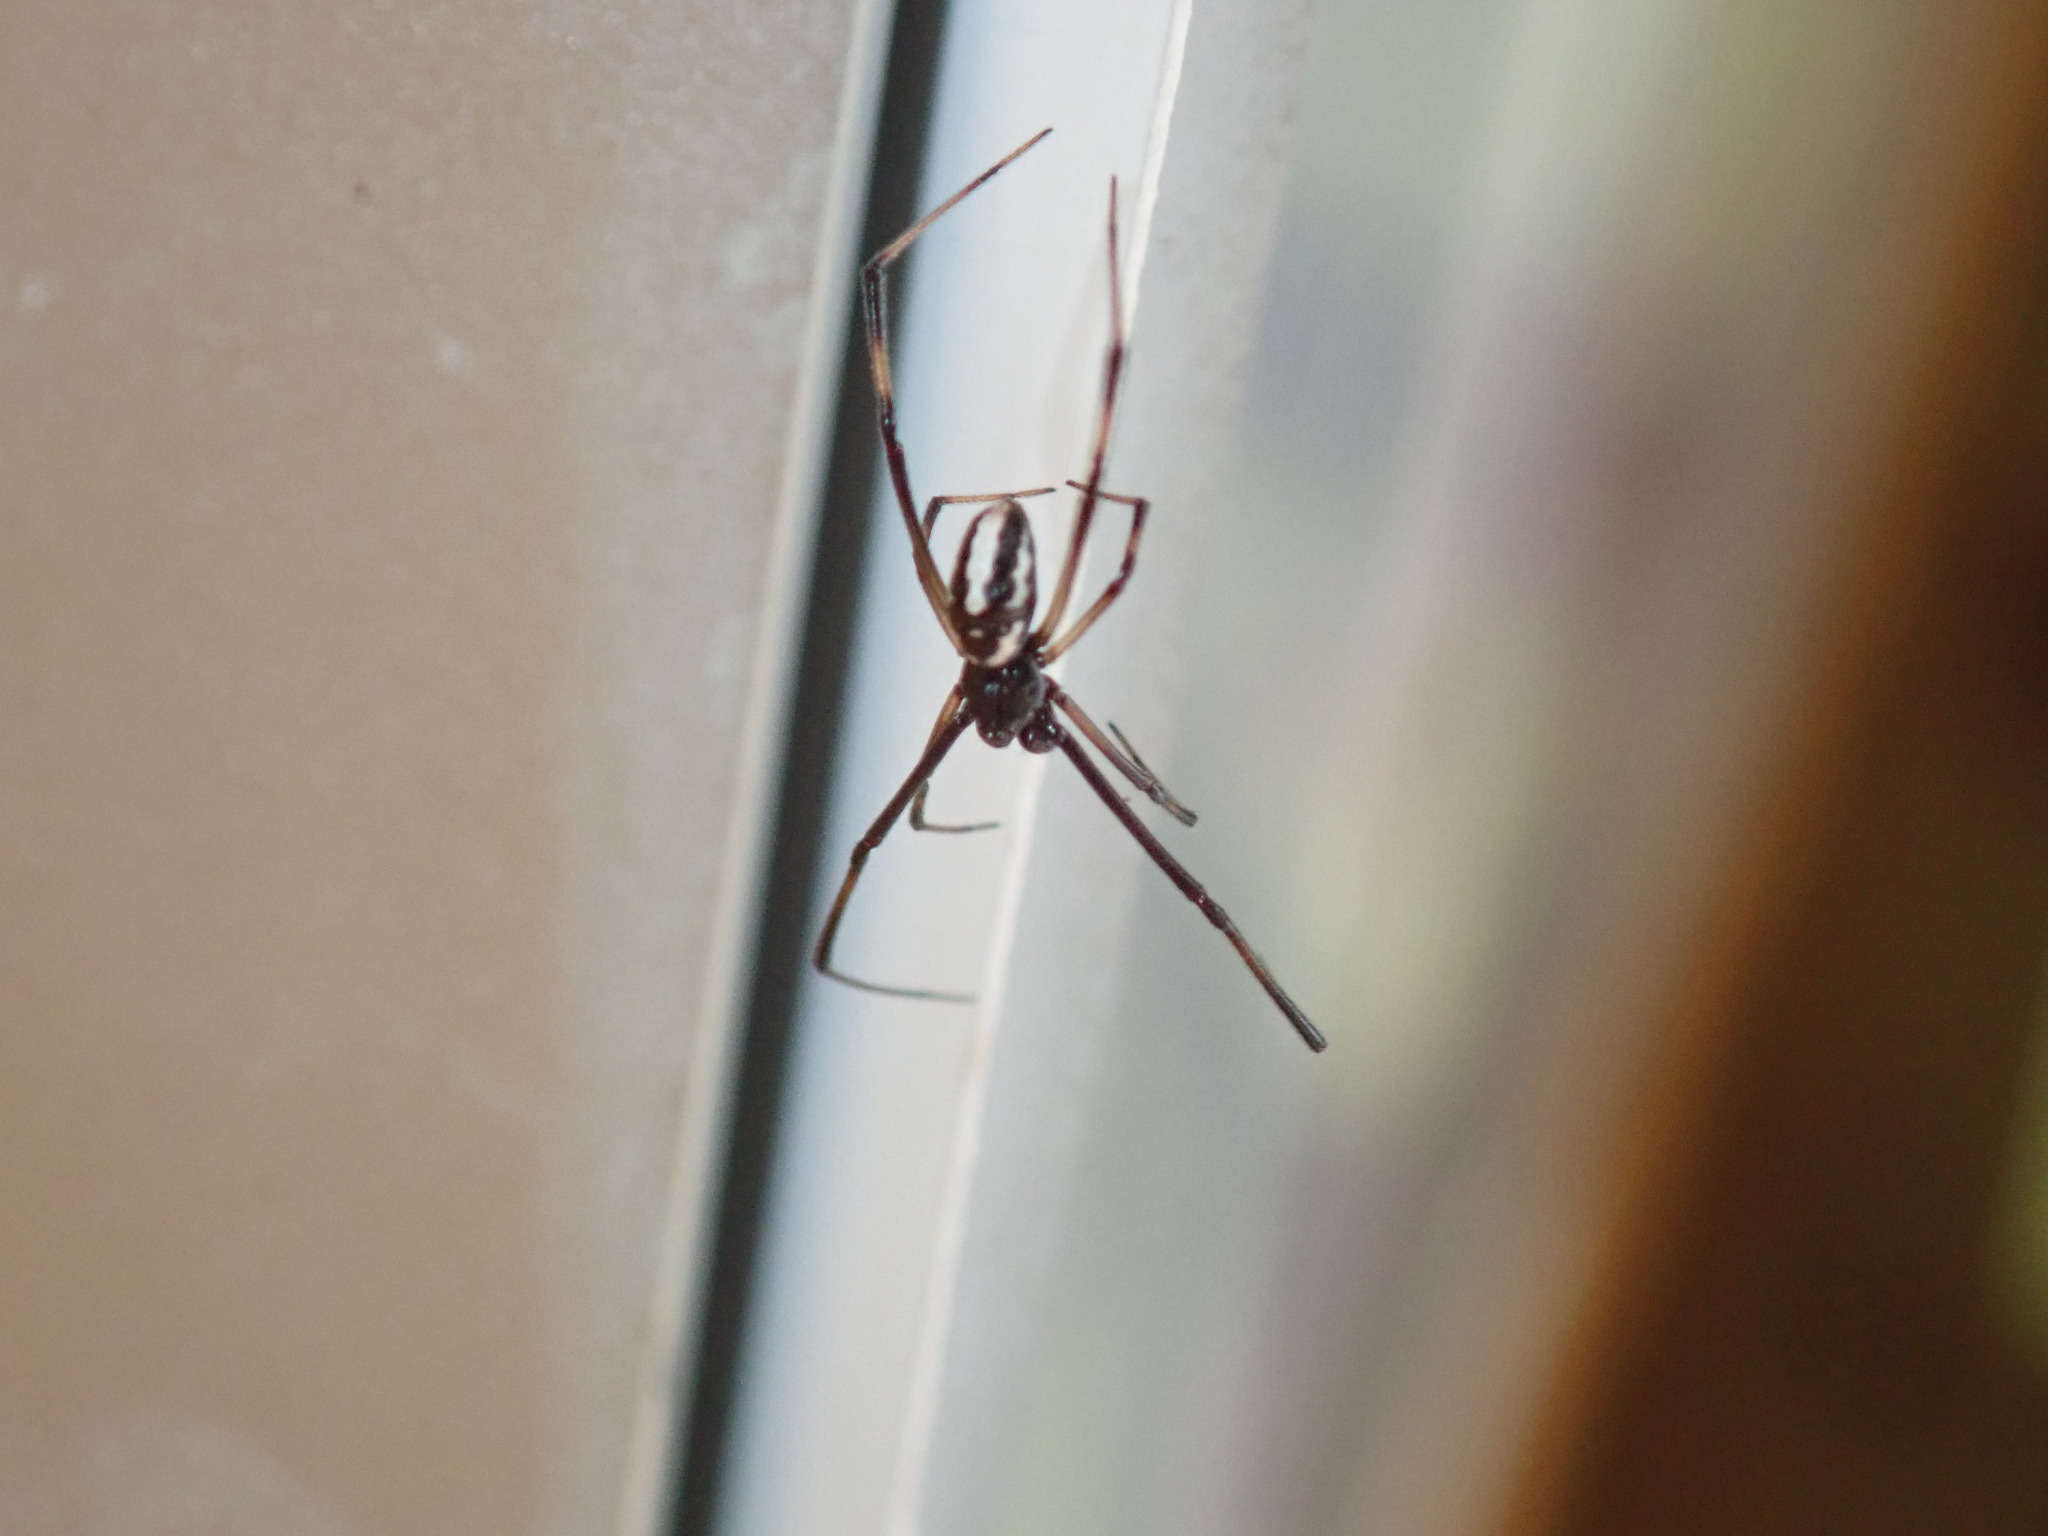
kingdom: Animalia
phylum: Arthropoda
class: Arachnida
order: Araneae
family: Theridiidae
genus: Latrodectus
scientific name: Latrodectus hasselti
